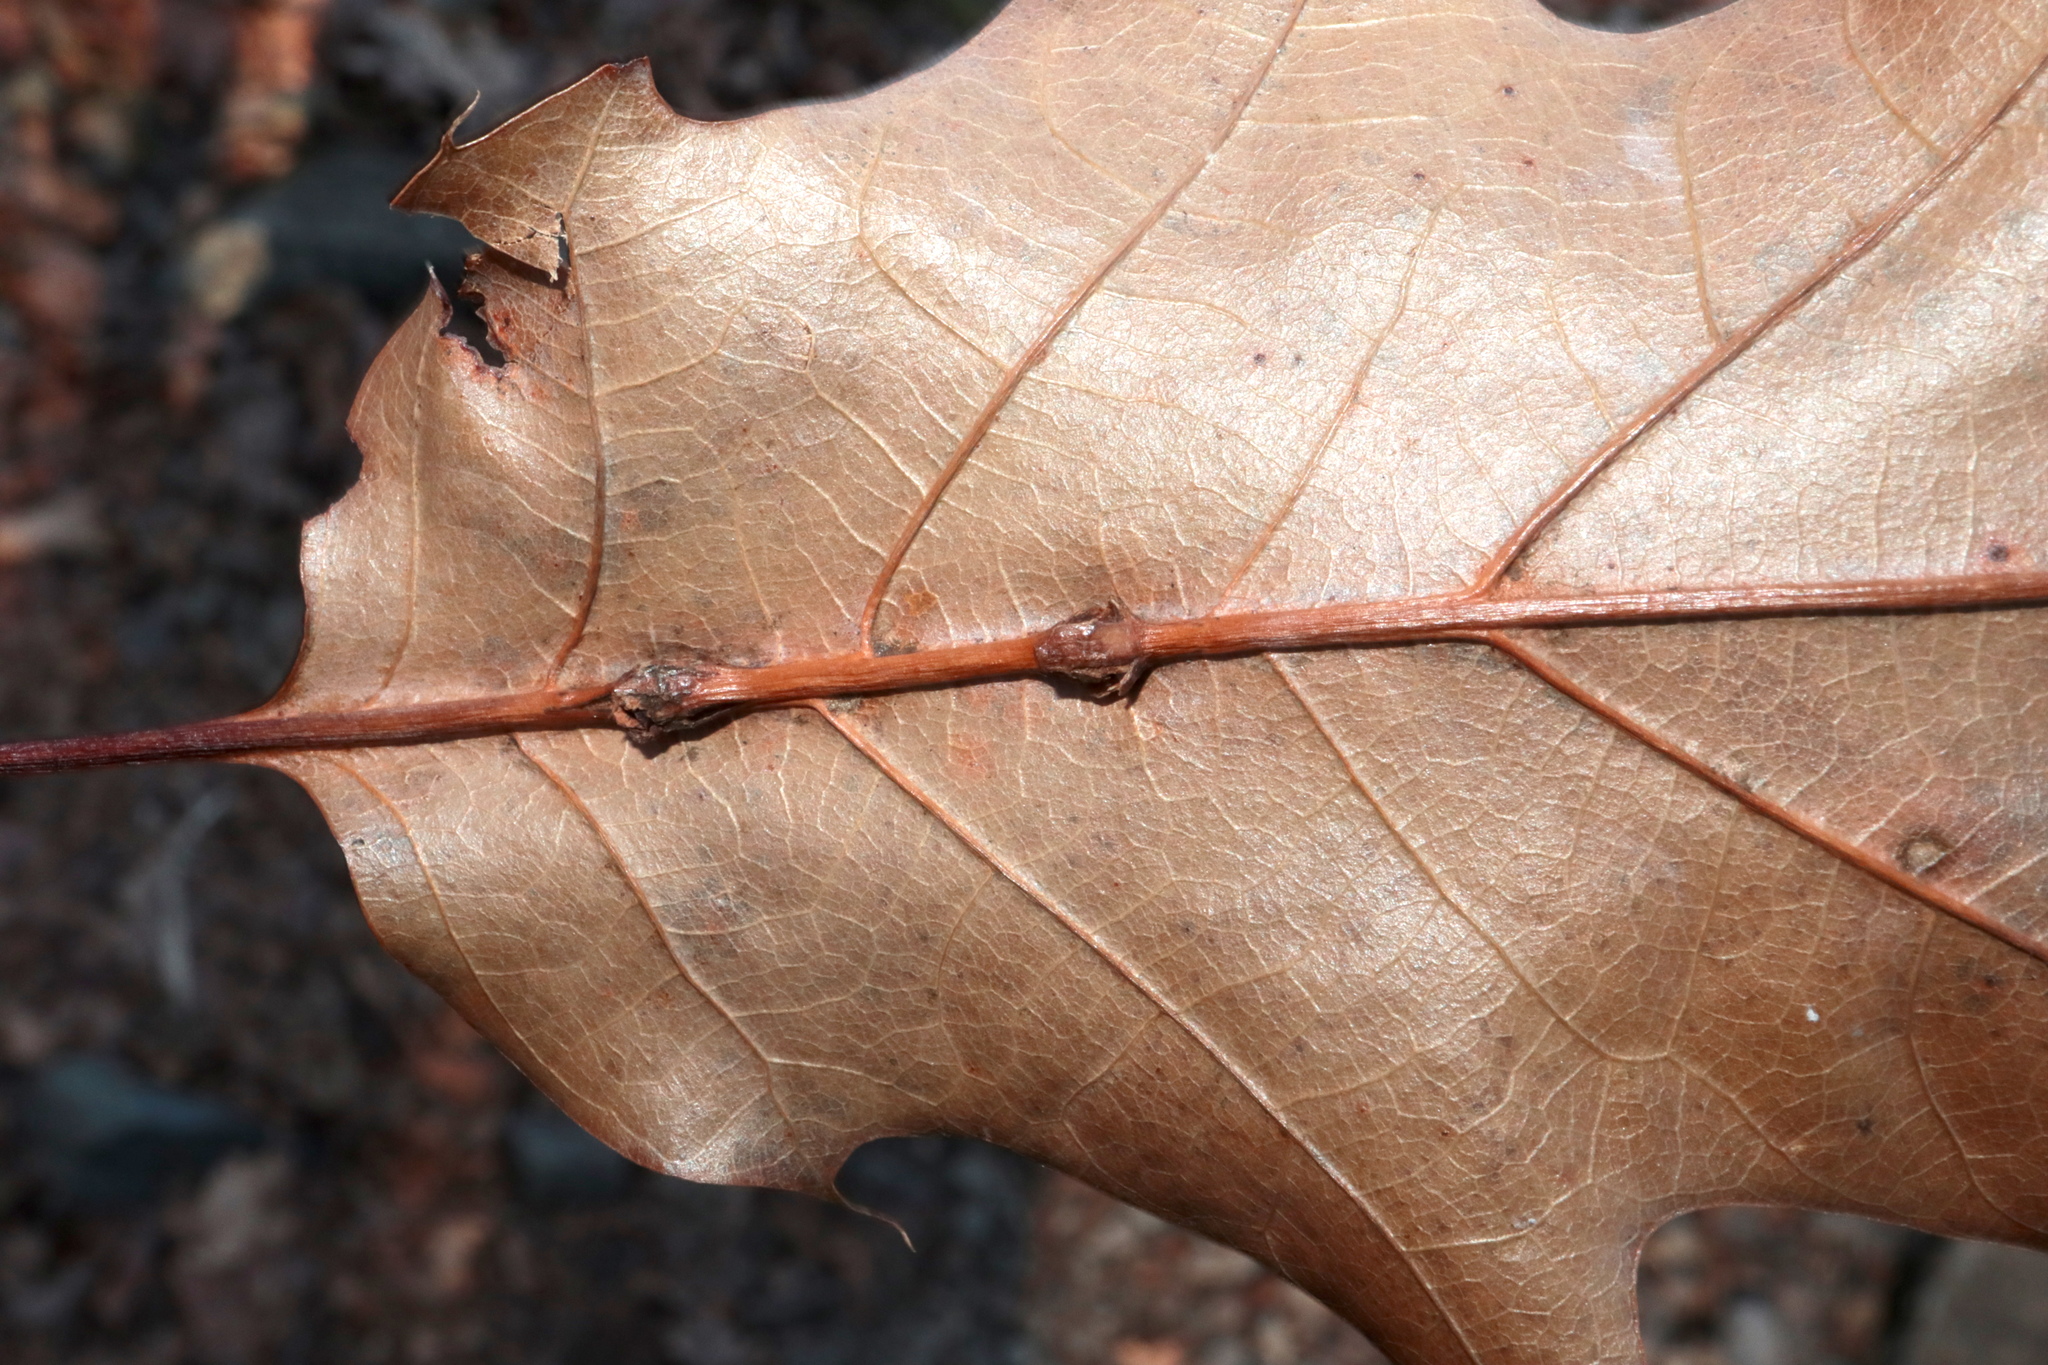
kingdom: Animalia
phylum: Arthropoda
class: Insecta
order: Hymenoptera
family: Cynipidae
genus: Kokkocynips
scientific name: Kokkocynips decidua
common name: Oak wheat gall
